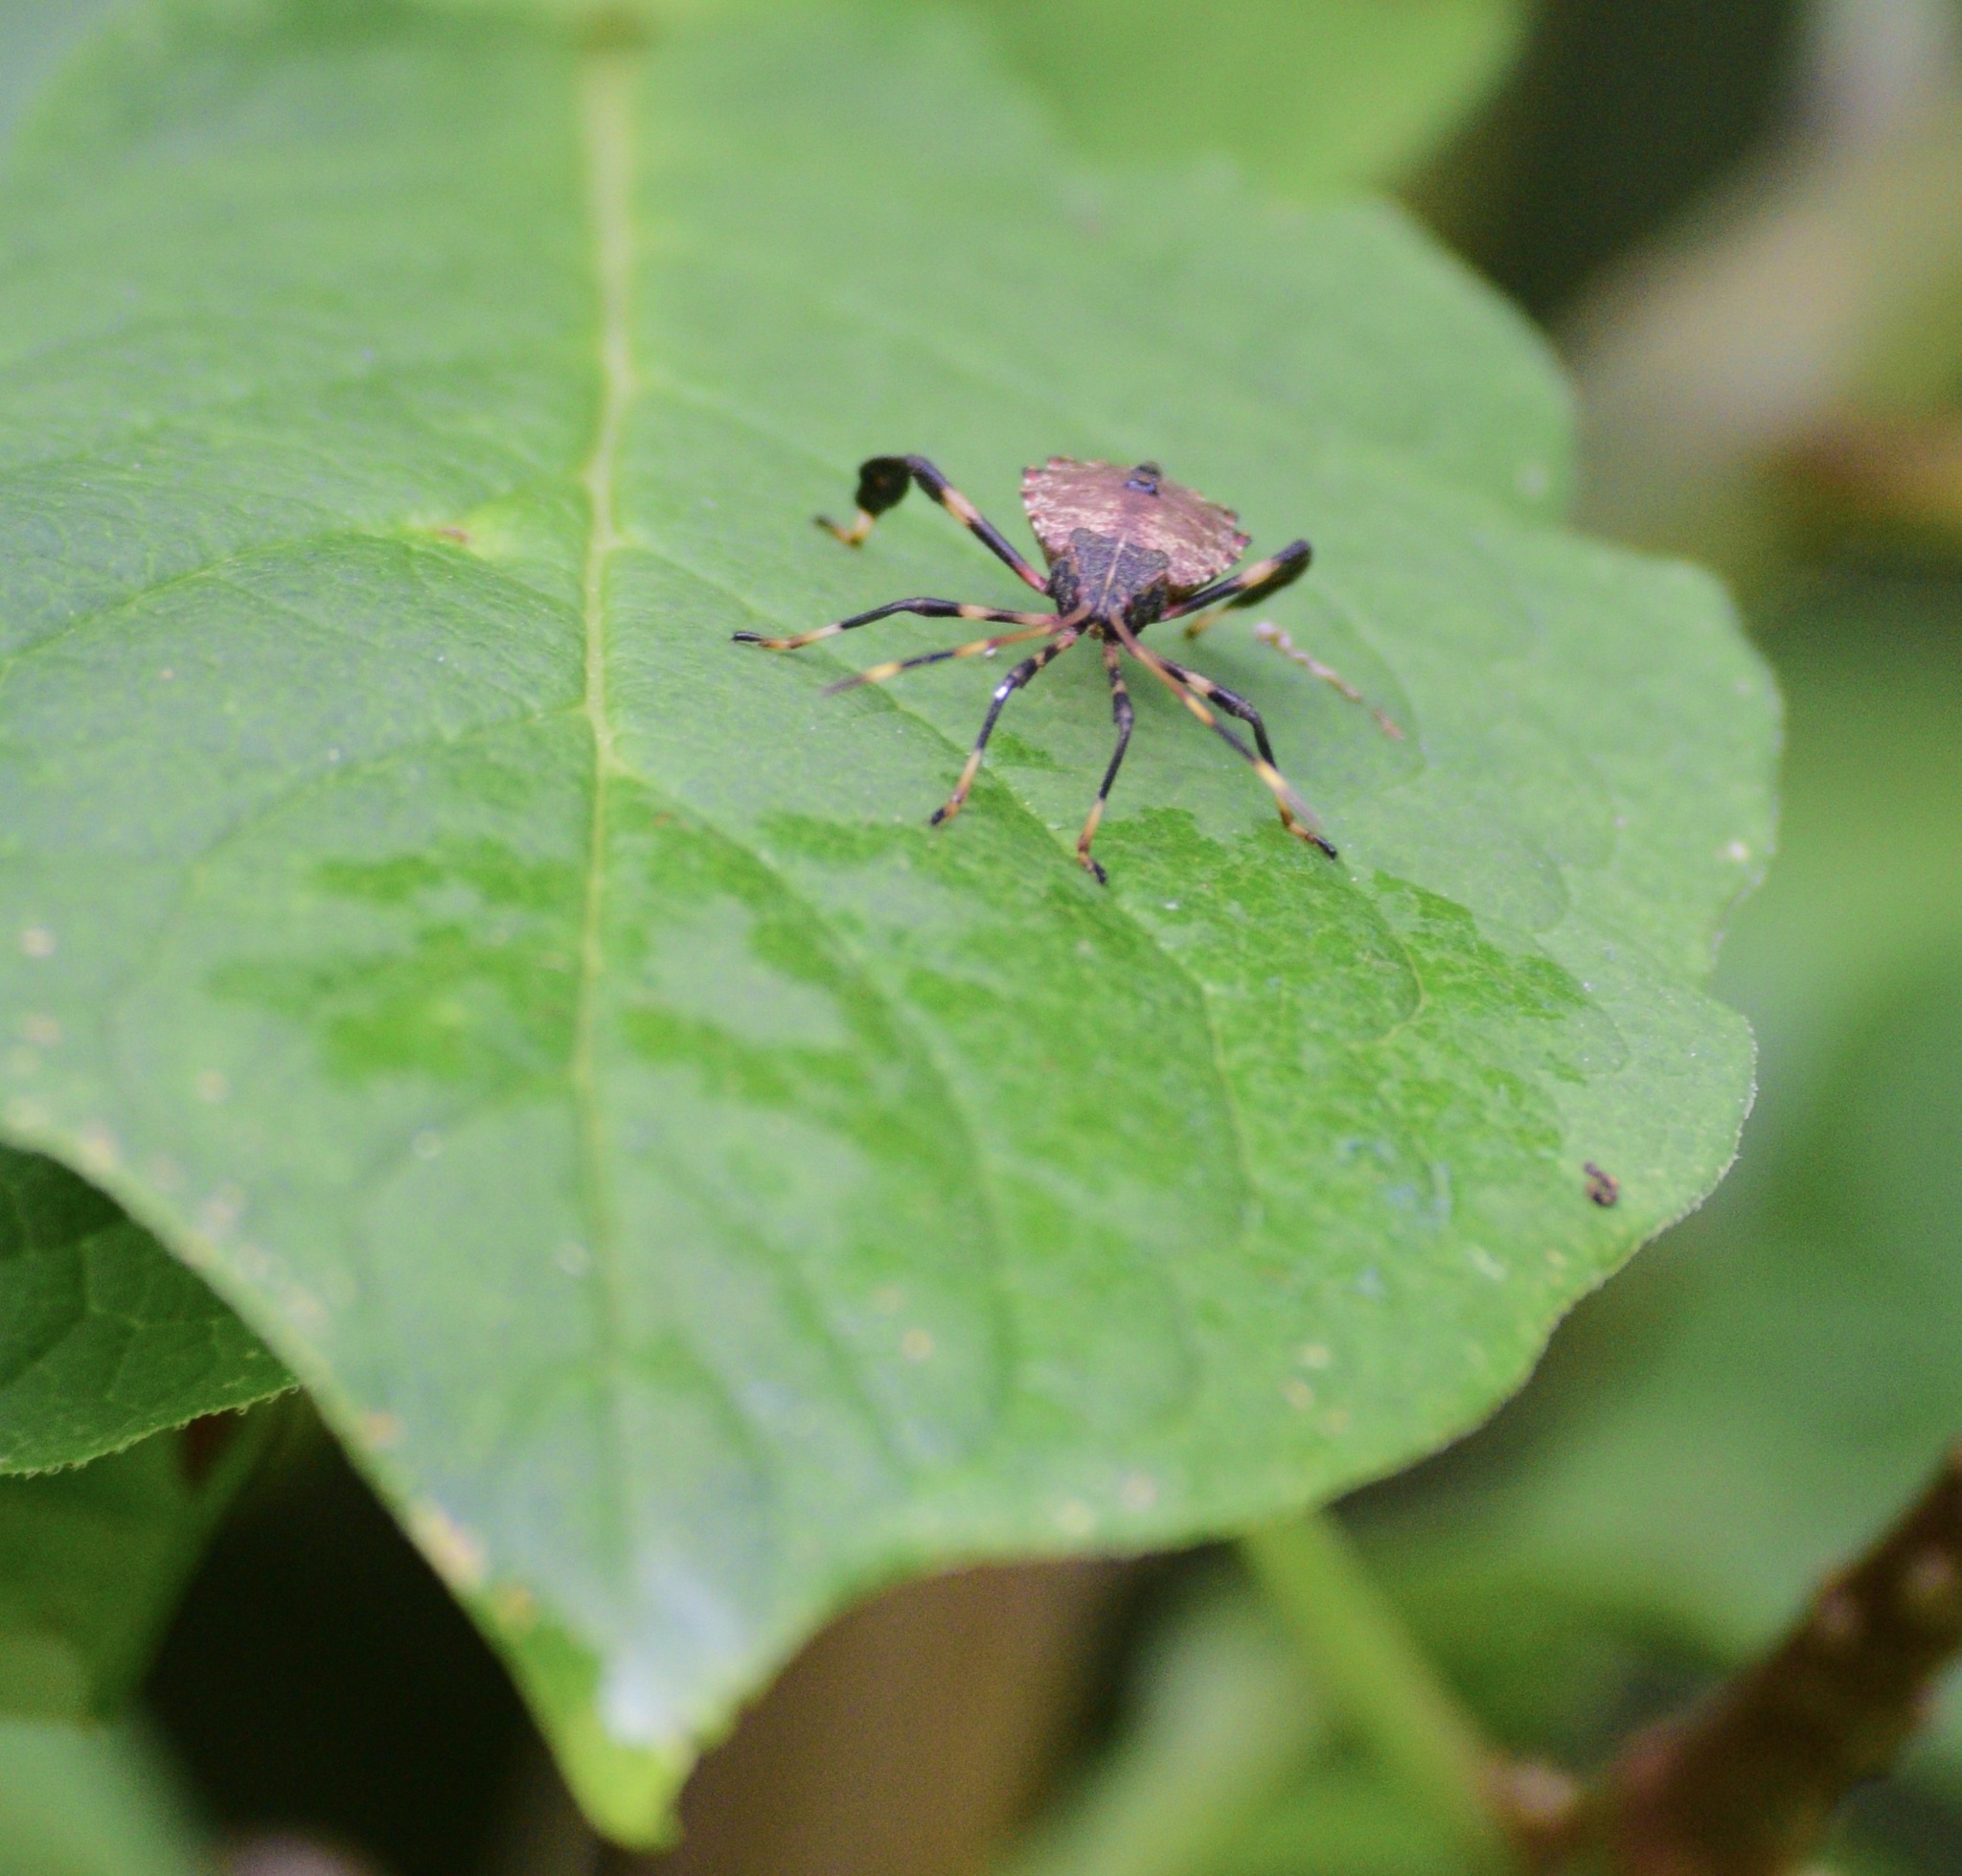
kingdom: Animalia
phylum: Arthropoda
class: Insecta
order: Hemiptera
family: Coreidae
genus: Acanthocephala
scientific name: Acanthocephala terminalis
